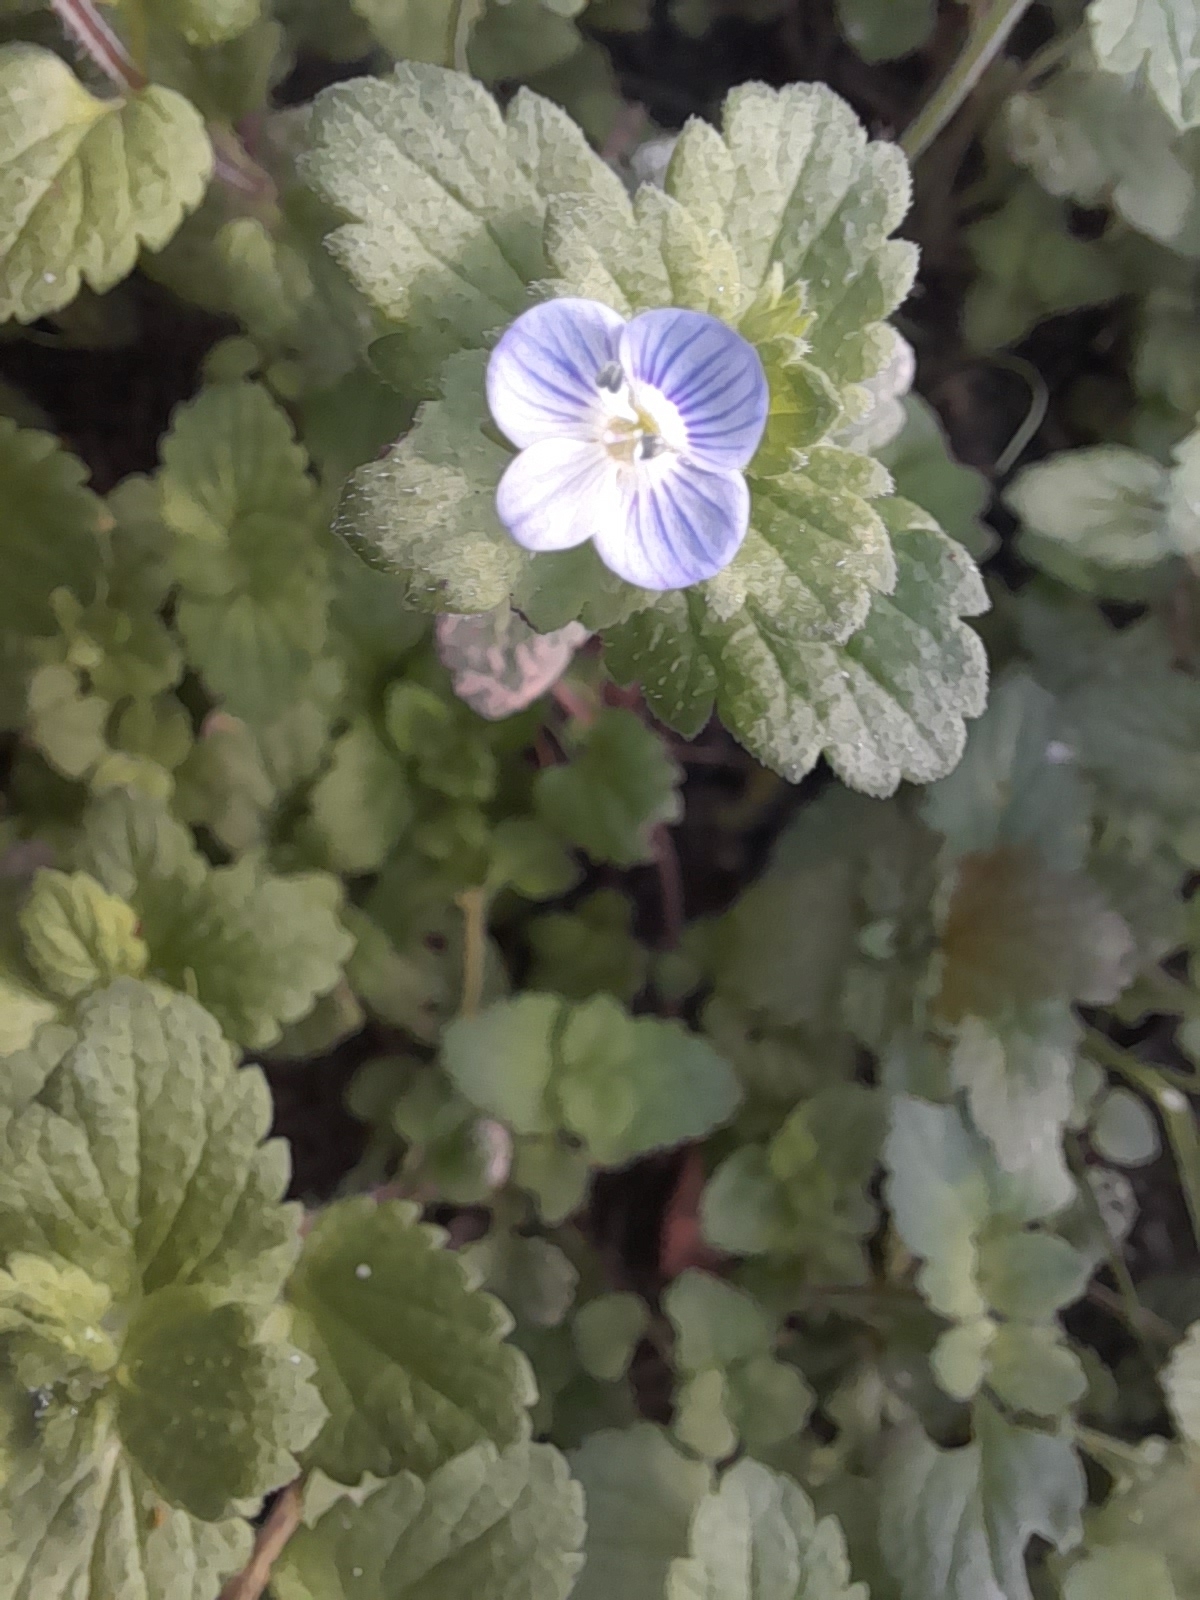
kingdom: Plantae
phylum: Tracheophyta
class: Magnoliopsida
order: Lamiales
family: Plantaginaceae
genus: Veronica
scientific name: Veronica persica
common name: Common field-speedwell
